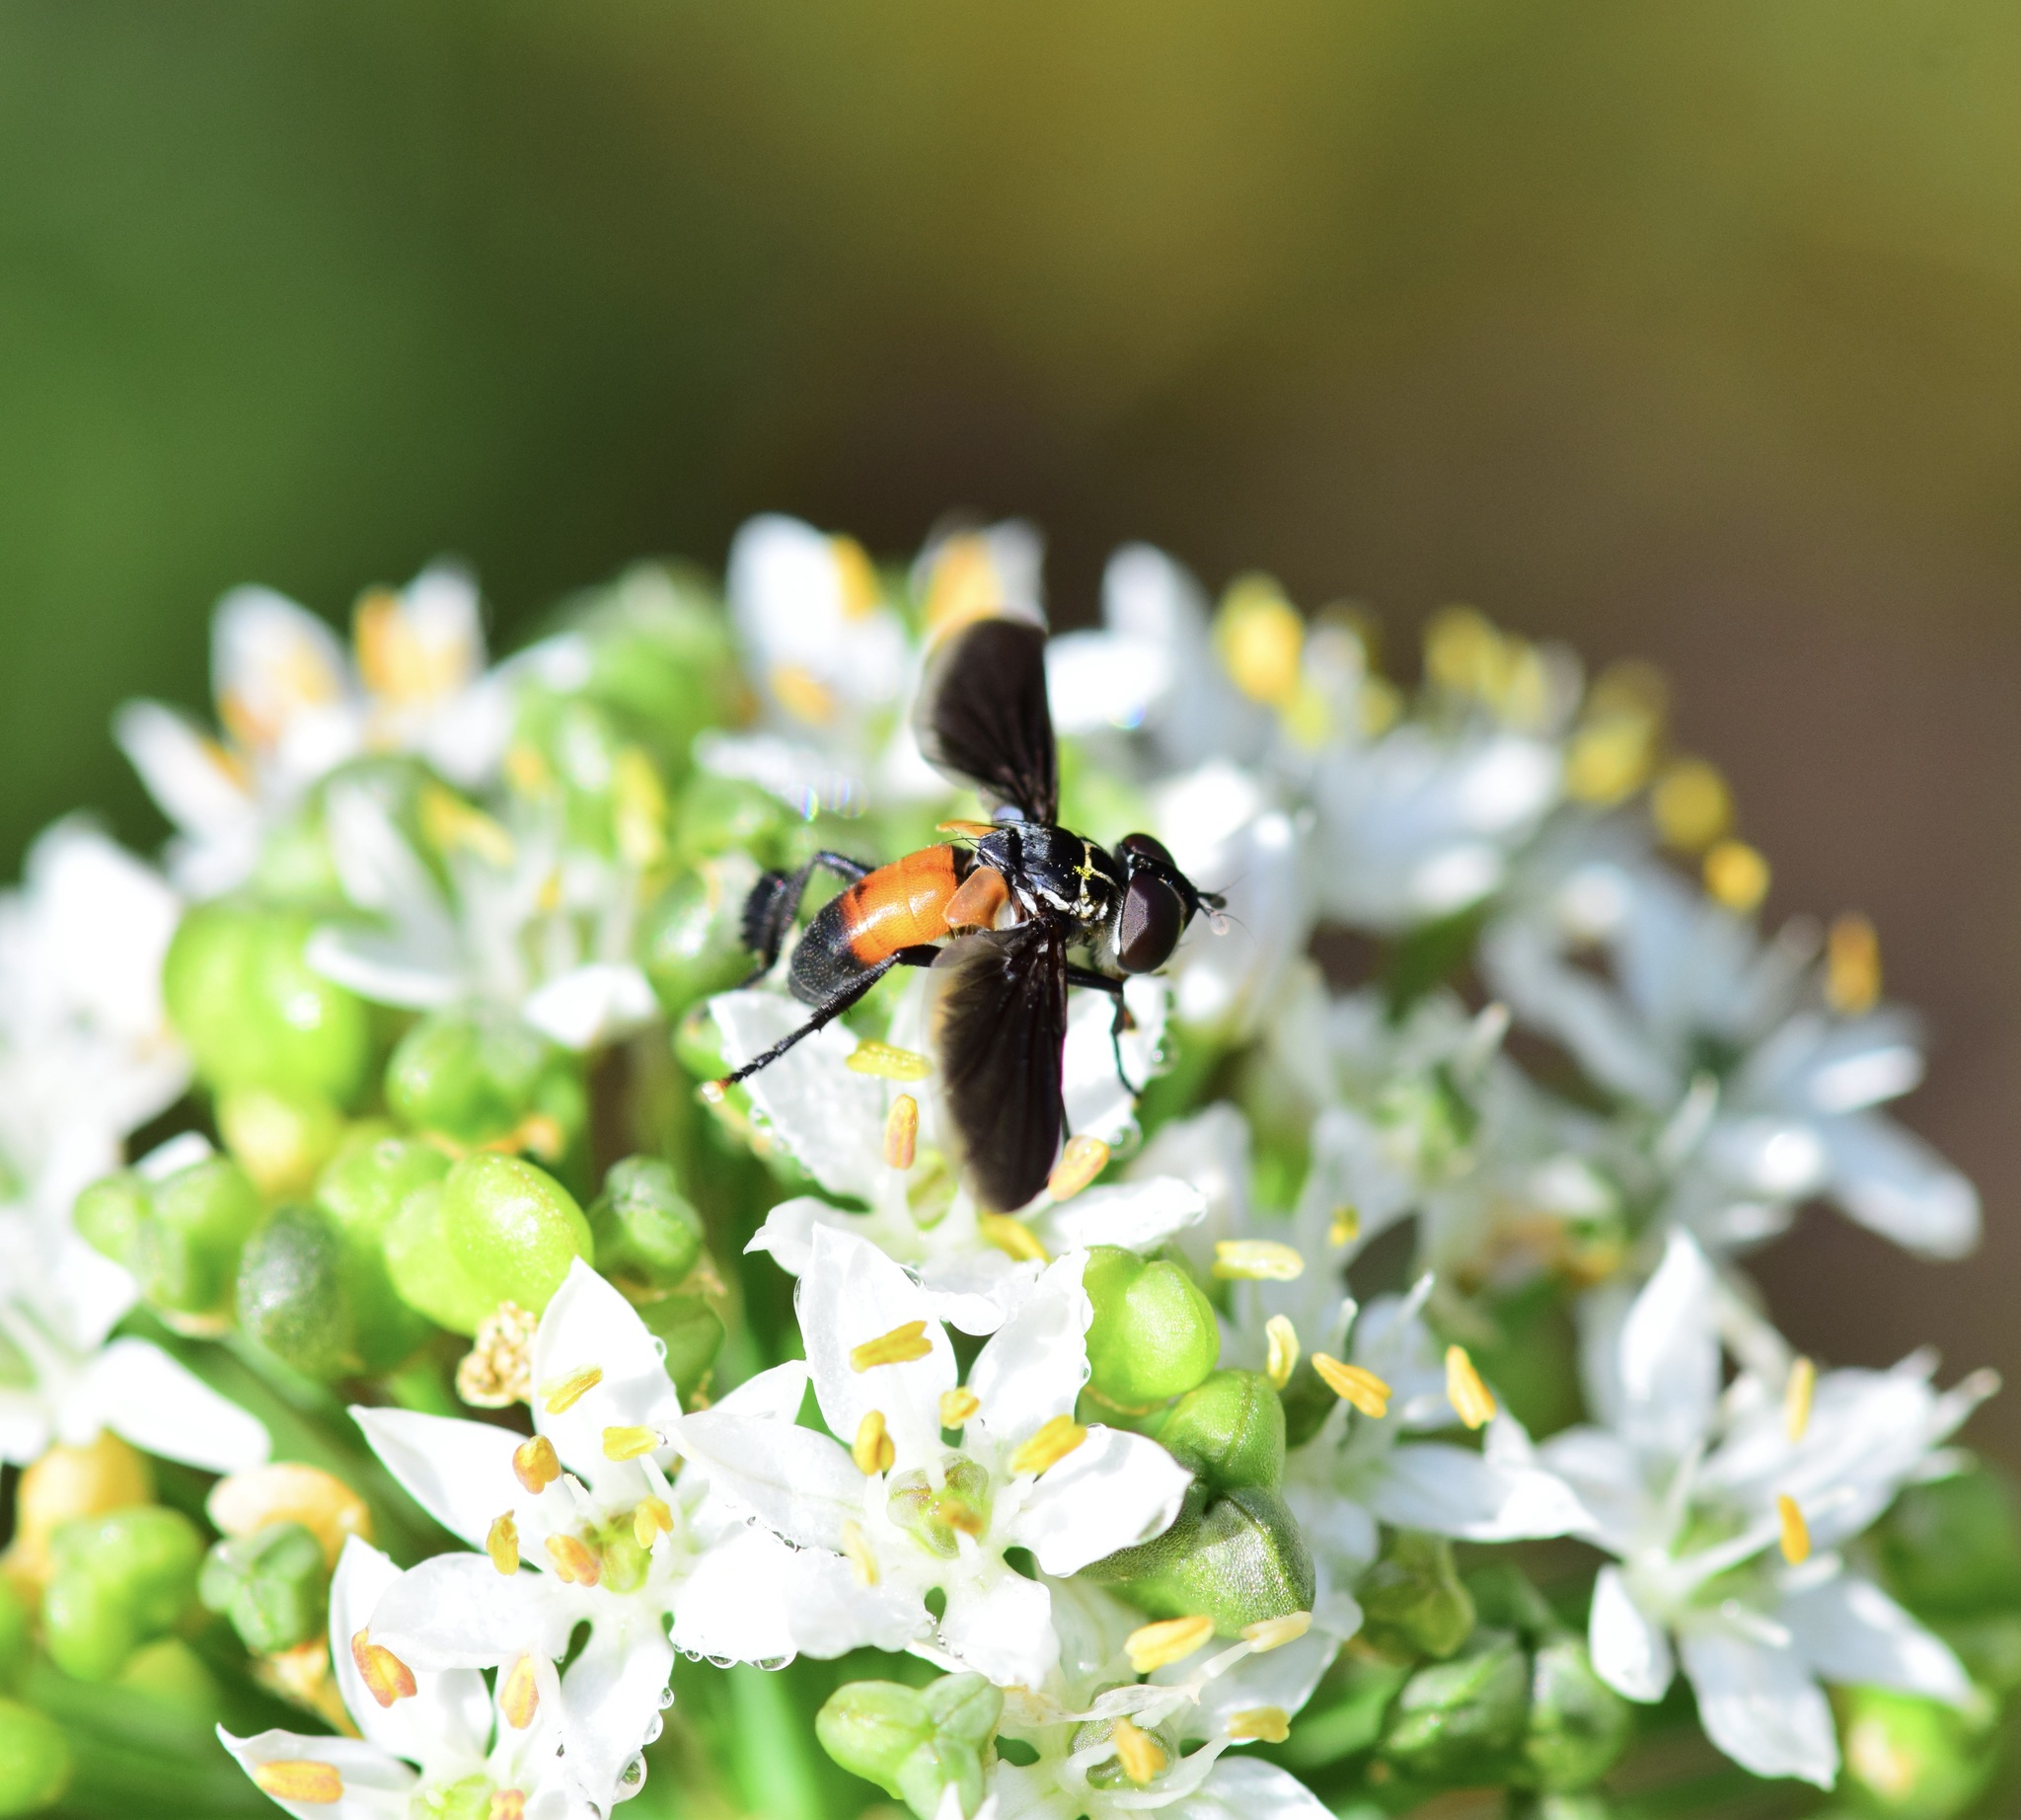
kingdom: Animalia
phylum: Arthropoda
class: Insecta
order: Diptera
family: Tachinidae
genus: Trichopoda
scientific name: Trichopoda pennipes
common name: Tachinid fly
